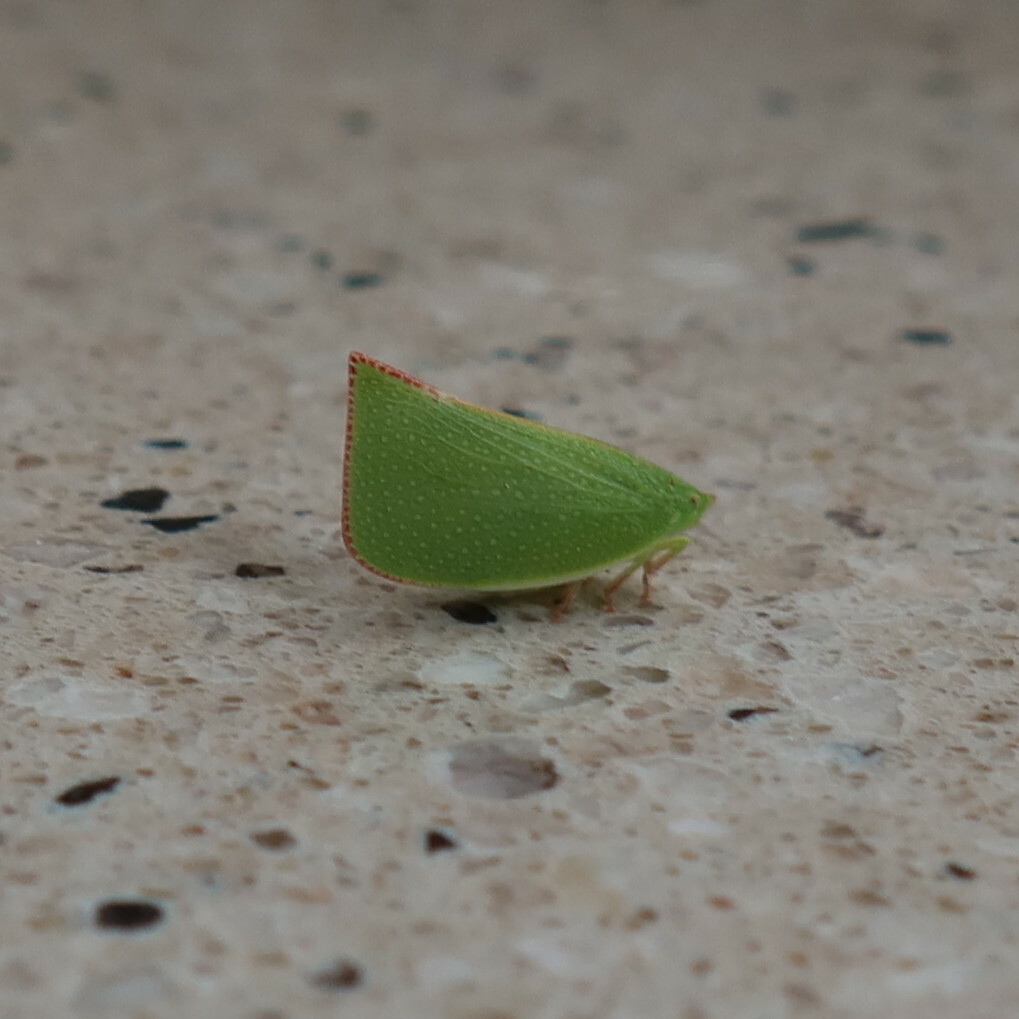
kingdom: Animalia
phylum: Arthropoda
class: Insecta
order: Hemiptera
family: Flatidae
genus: Siphanta
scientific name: Siphanta acuta
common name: Torpedo bug
